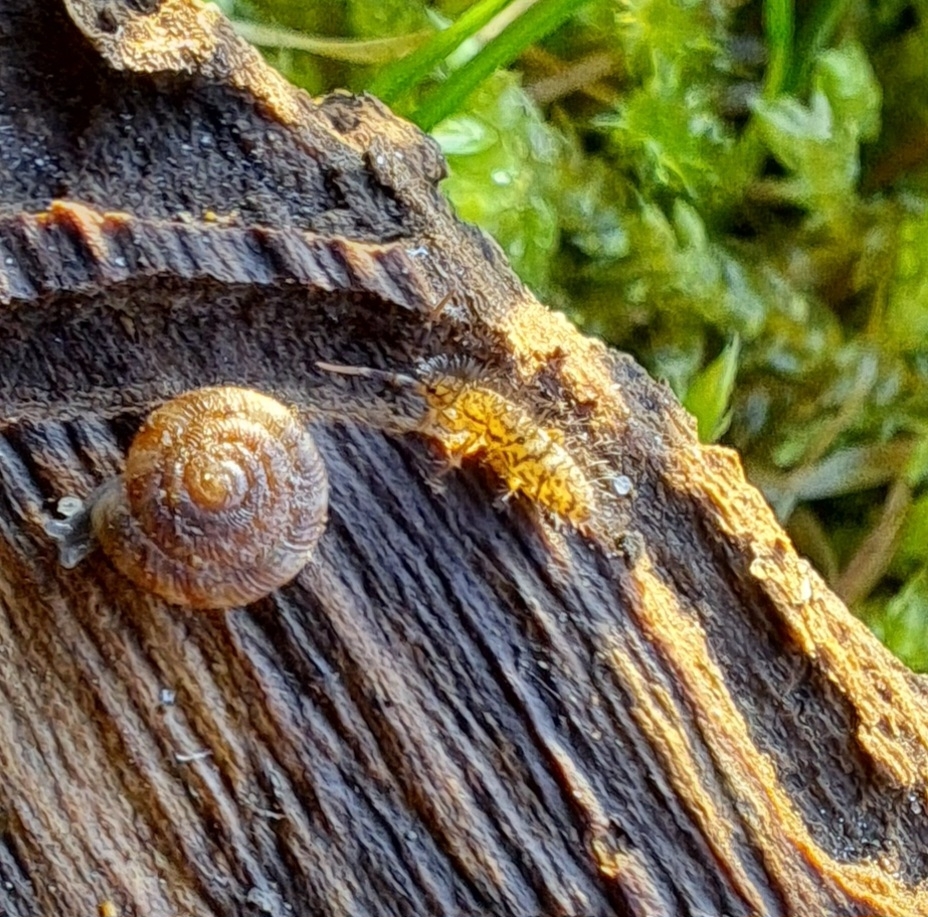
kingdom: Animalia
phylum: Arthropoda
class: Collembola
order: Entomobryomorpha
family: Orchesellidae
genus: Orchesella
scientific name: Orchesella villosa
